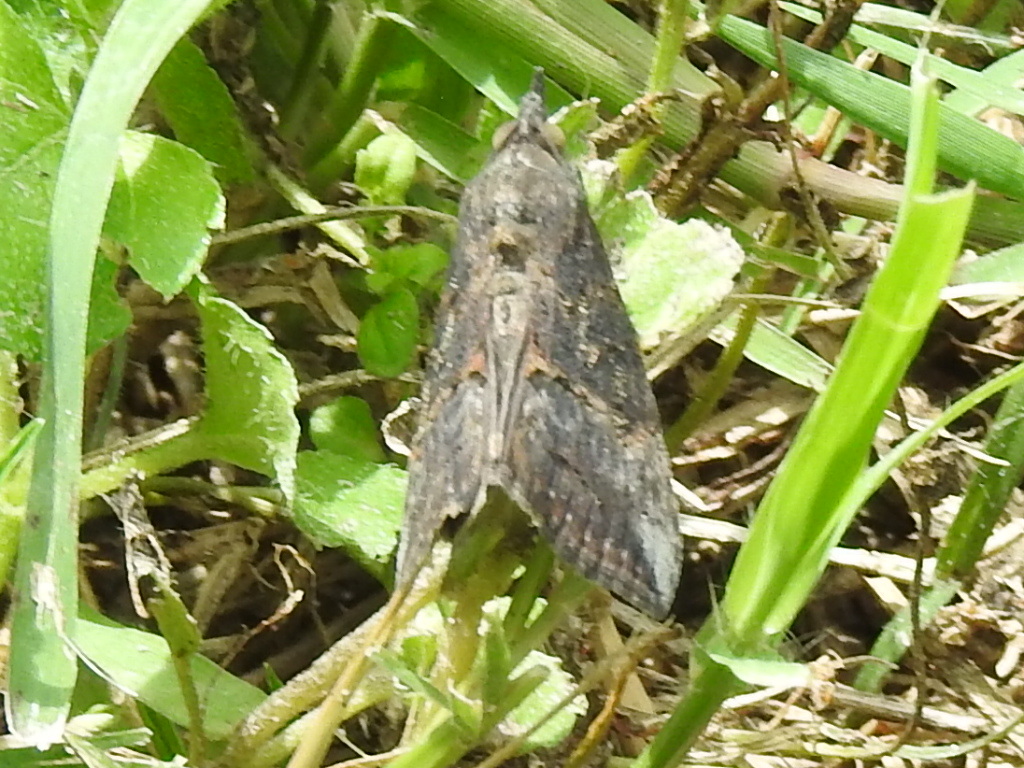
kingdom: Animalia
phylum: Arthropoda
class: Insecta
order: Lepidoptera
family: Erebidae
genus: Hypena
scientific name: Hypena scabra
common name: Green cloverworm
